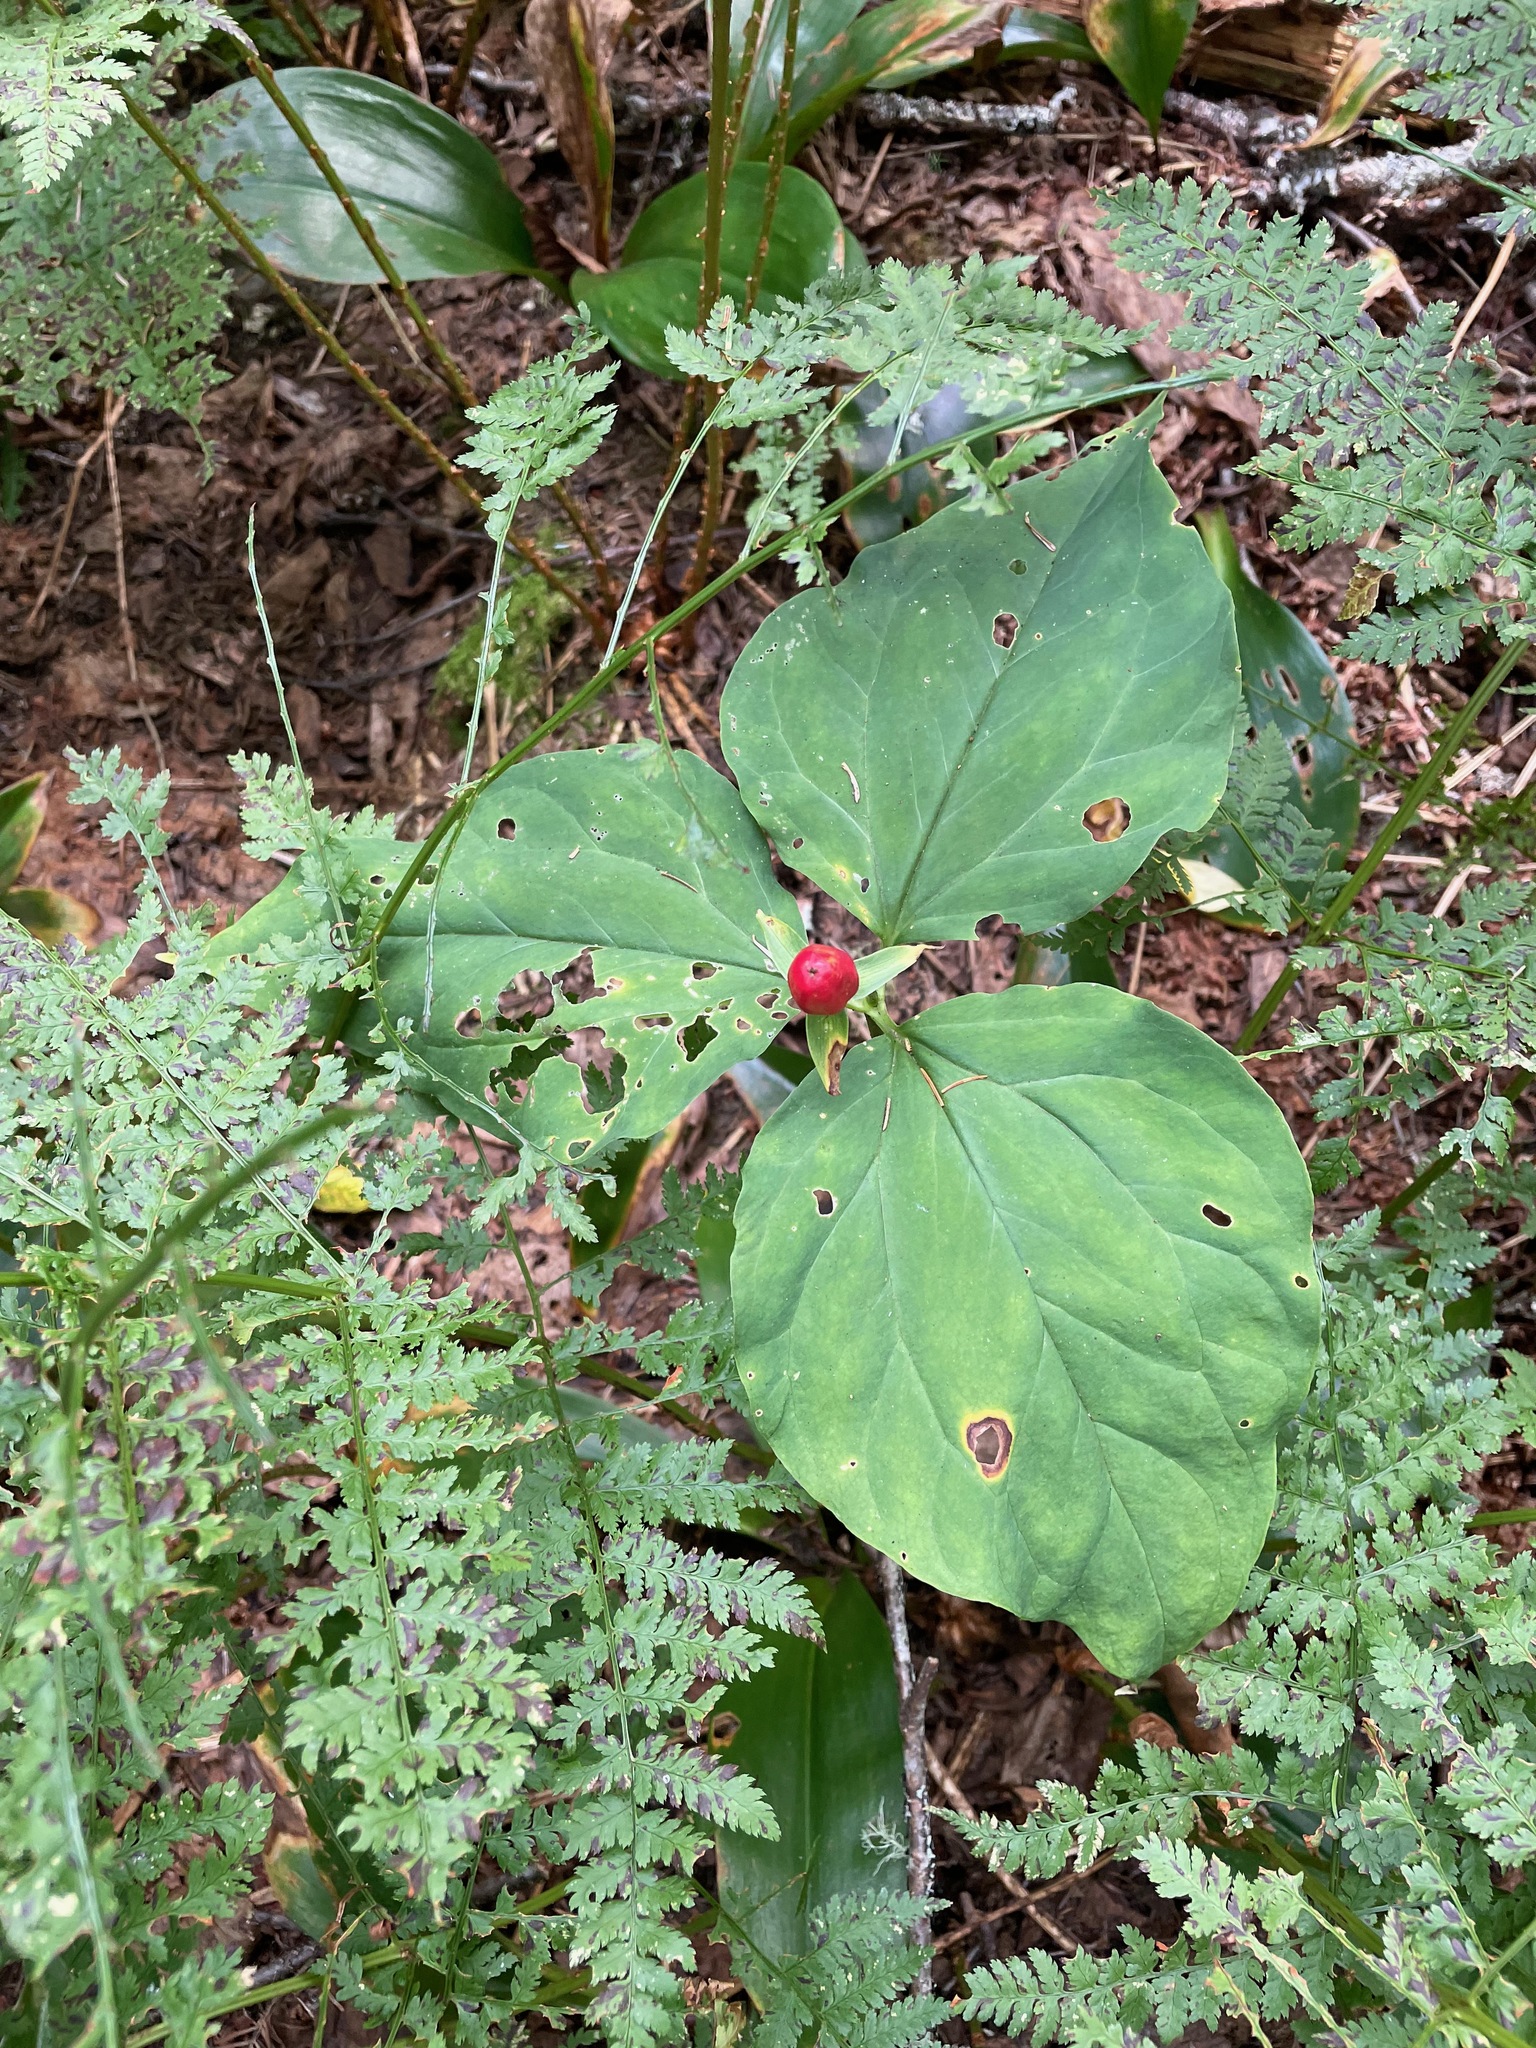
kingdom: Plantae
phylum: Tracheophyta
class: Liliopsida
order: Liliales
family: Melanthiaceae
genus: Trillium
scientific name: Trillium undulatum
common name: Paint trillium
